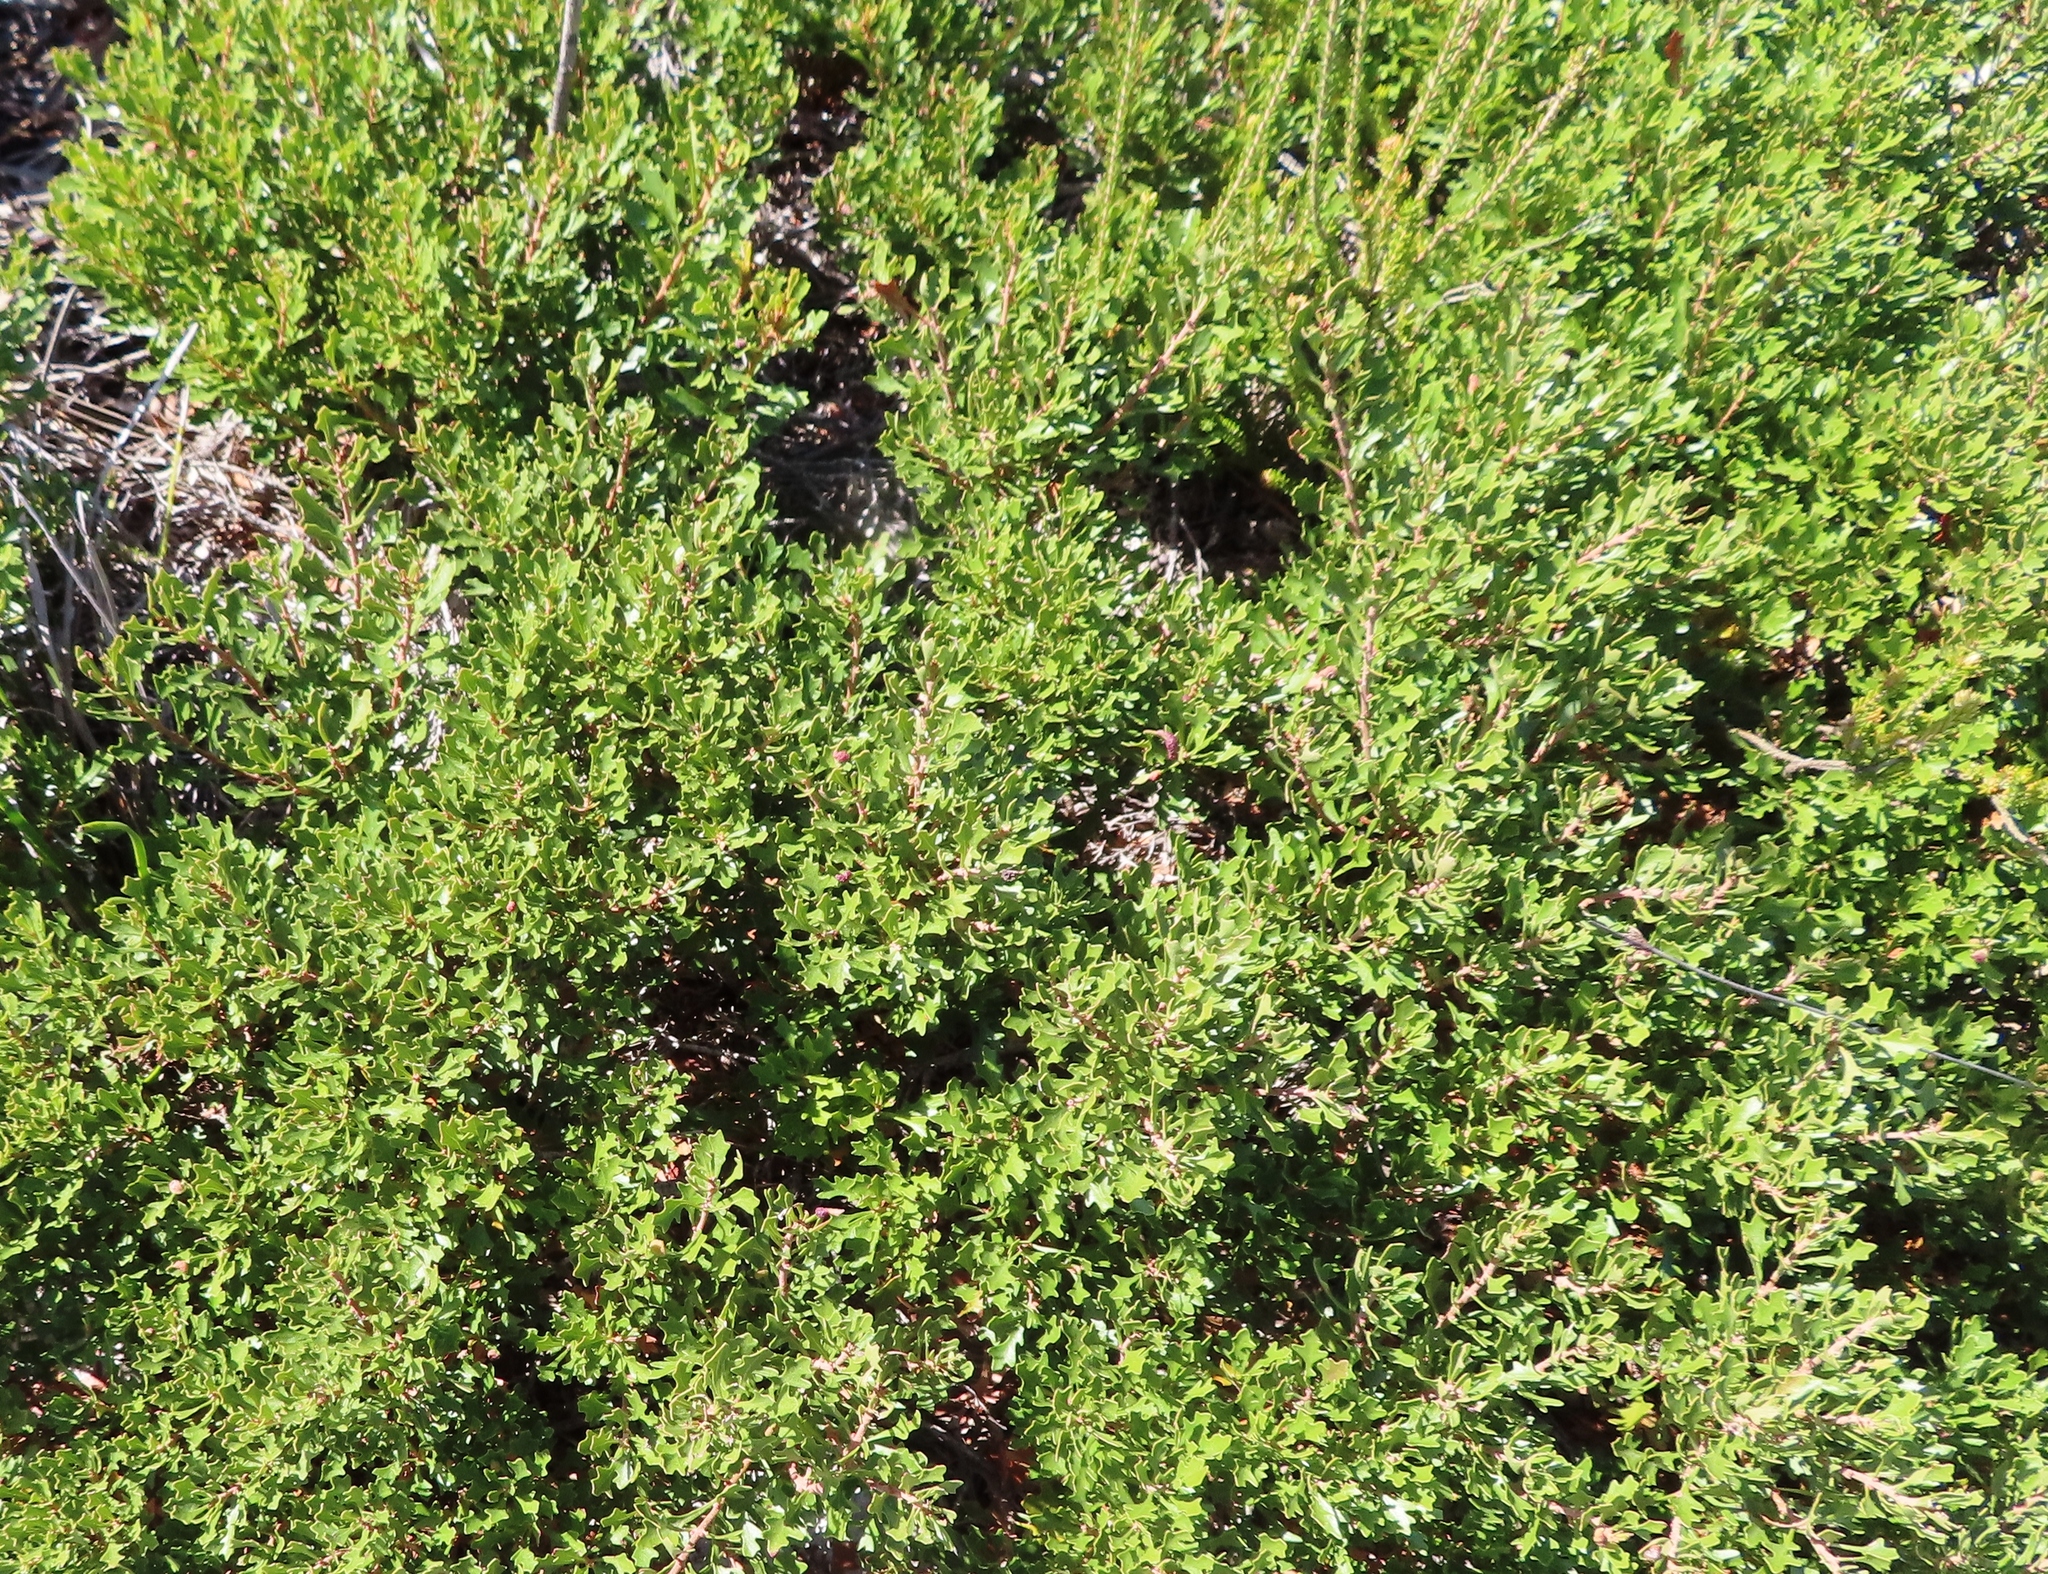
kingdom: Plantae
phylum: Tracheophyta
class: Magnoliopsida
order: Fagales
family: Myricaceae
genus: Morella
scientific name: Morella quercifolia
